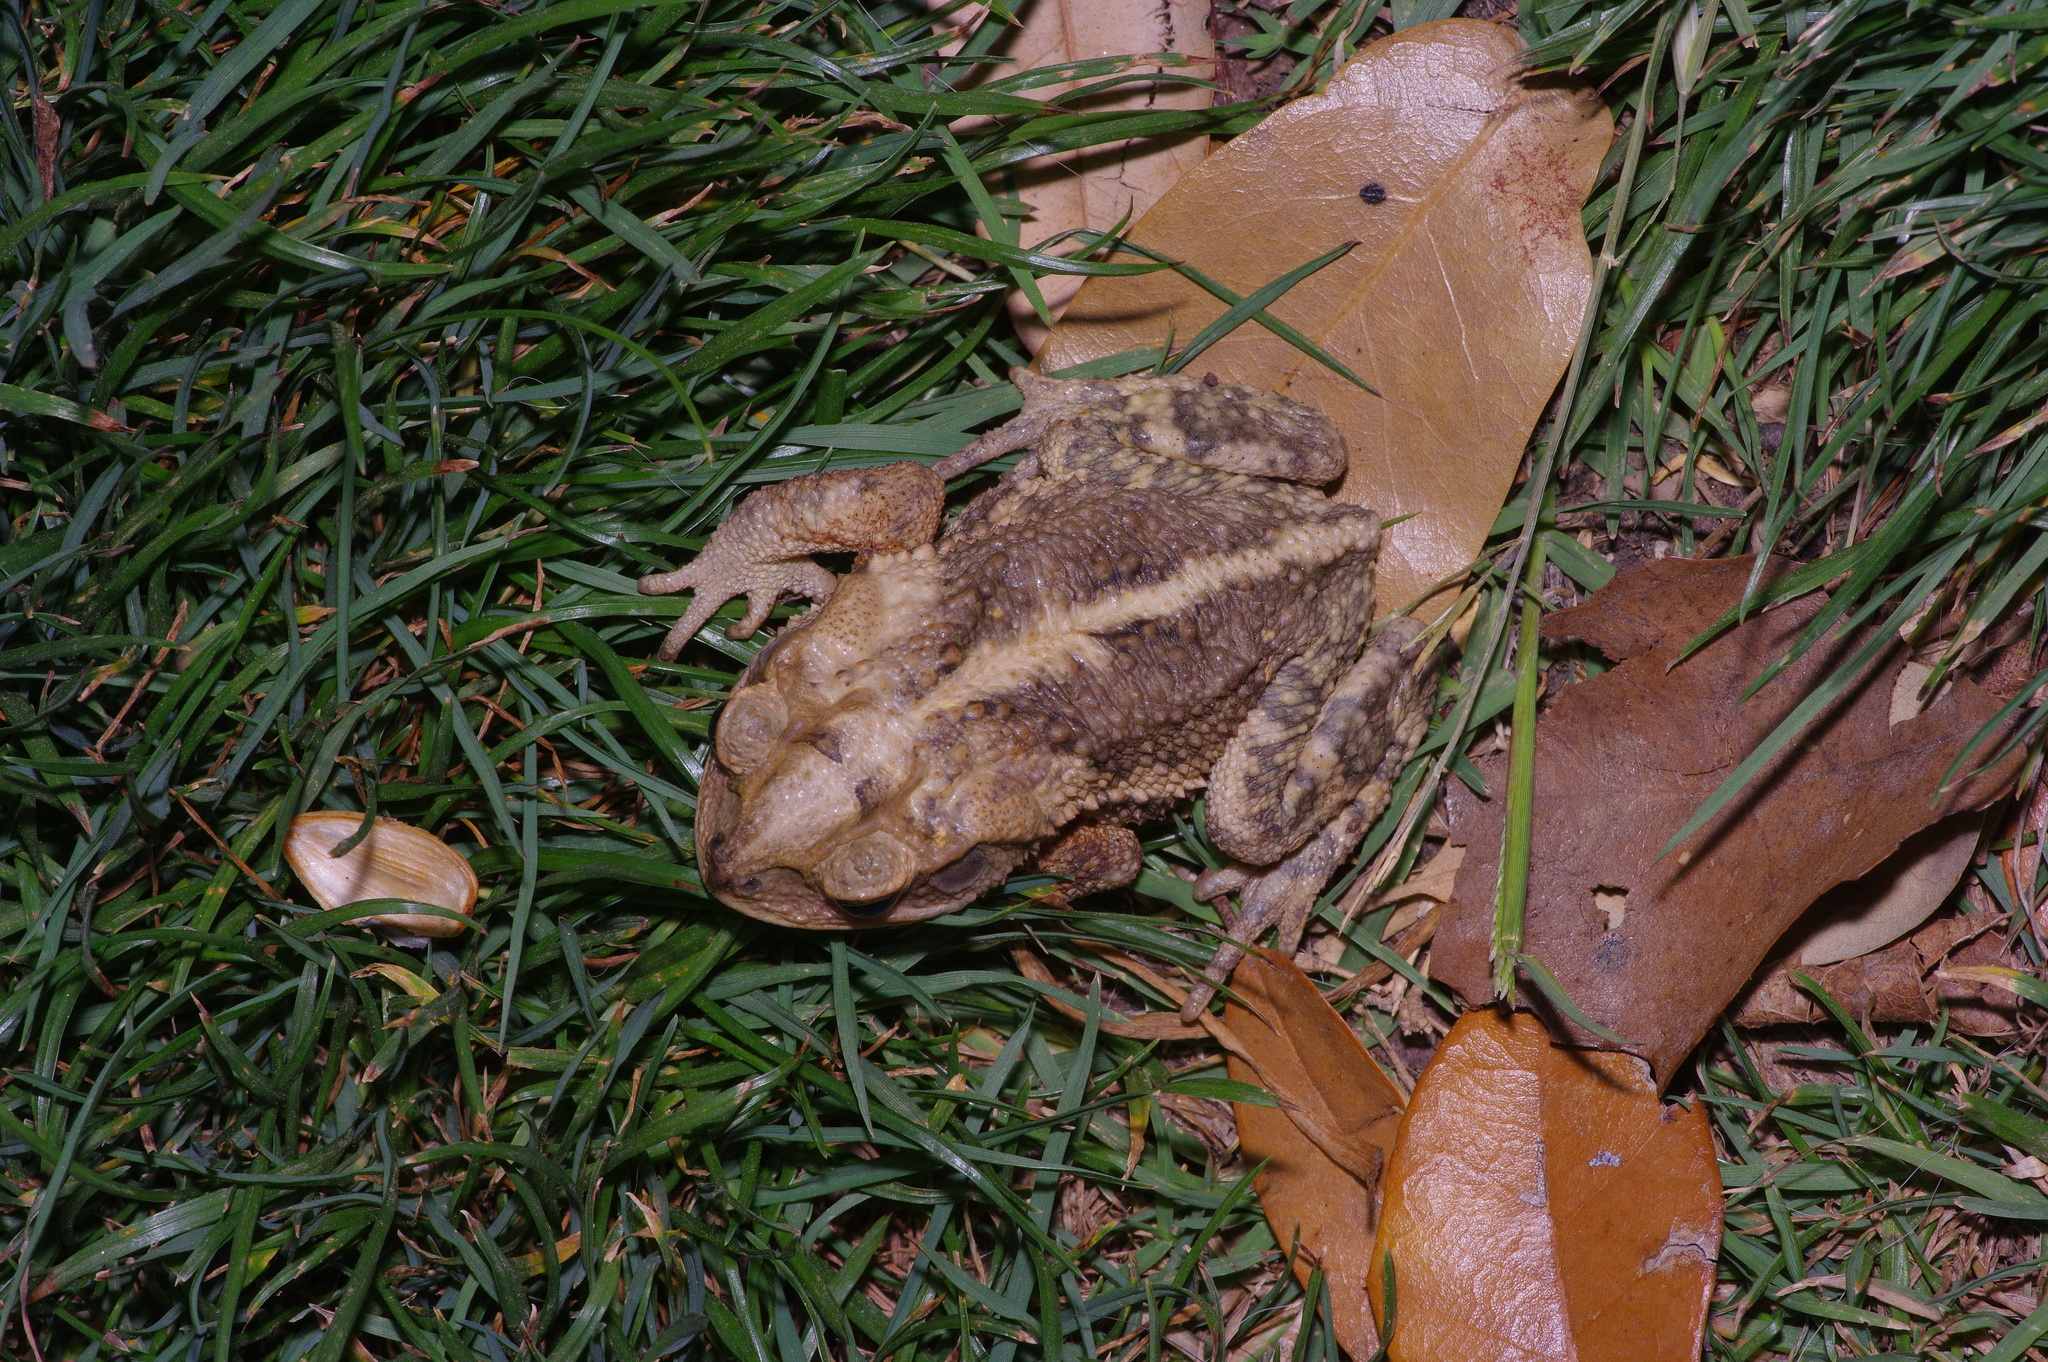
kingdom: Animalia
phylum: Chordata
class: Amphibia
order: Anura
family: Bufonidae
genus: Incilius
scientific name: Incilius nebulifer
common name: Gulf coast toad
